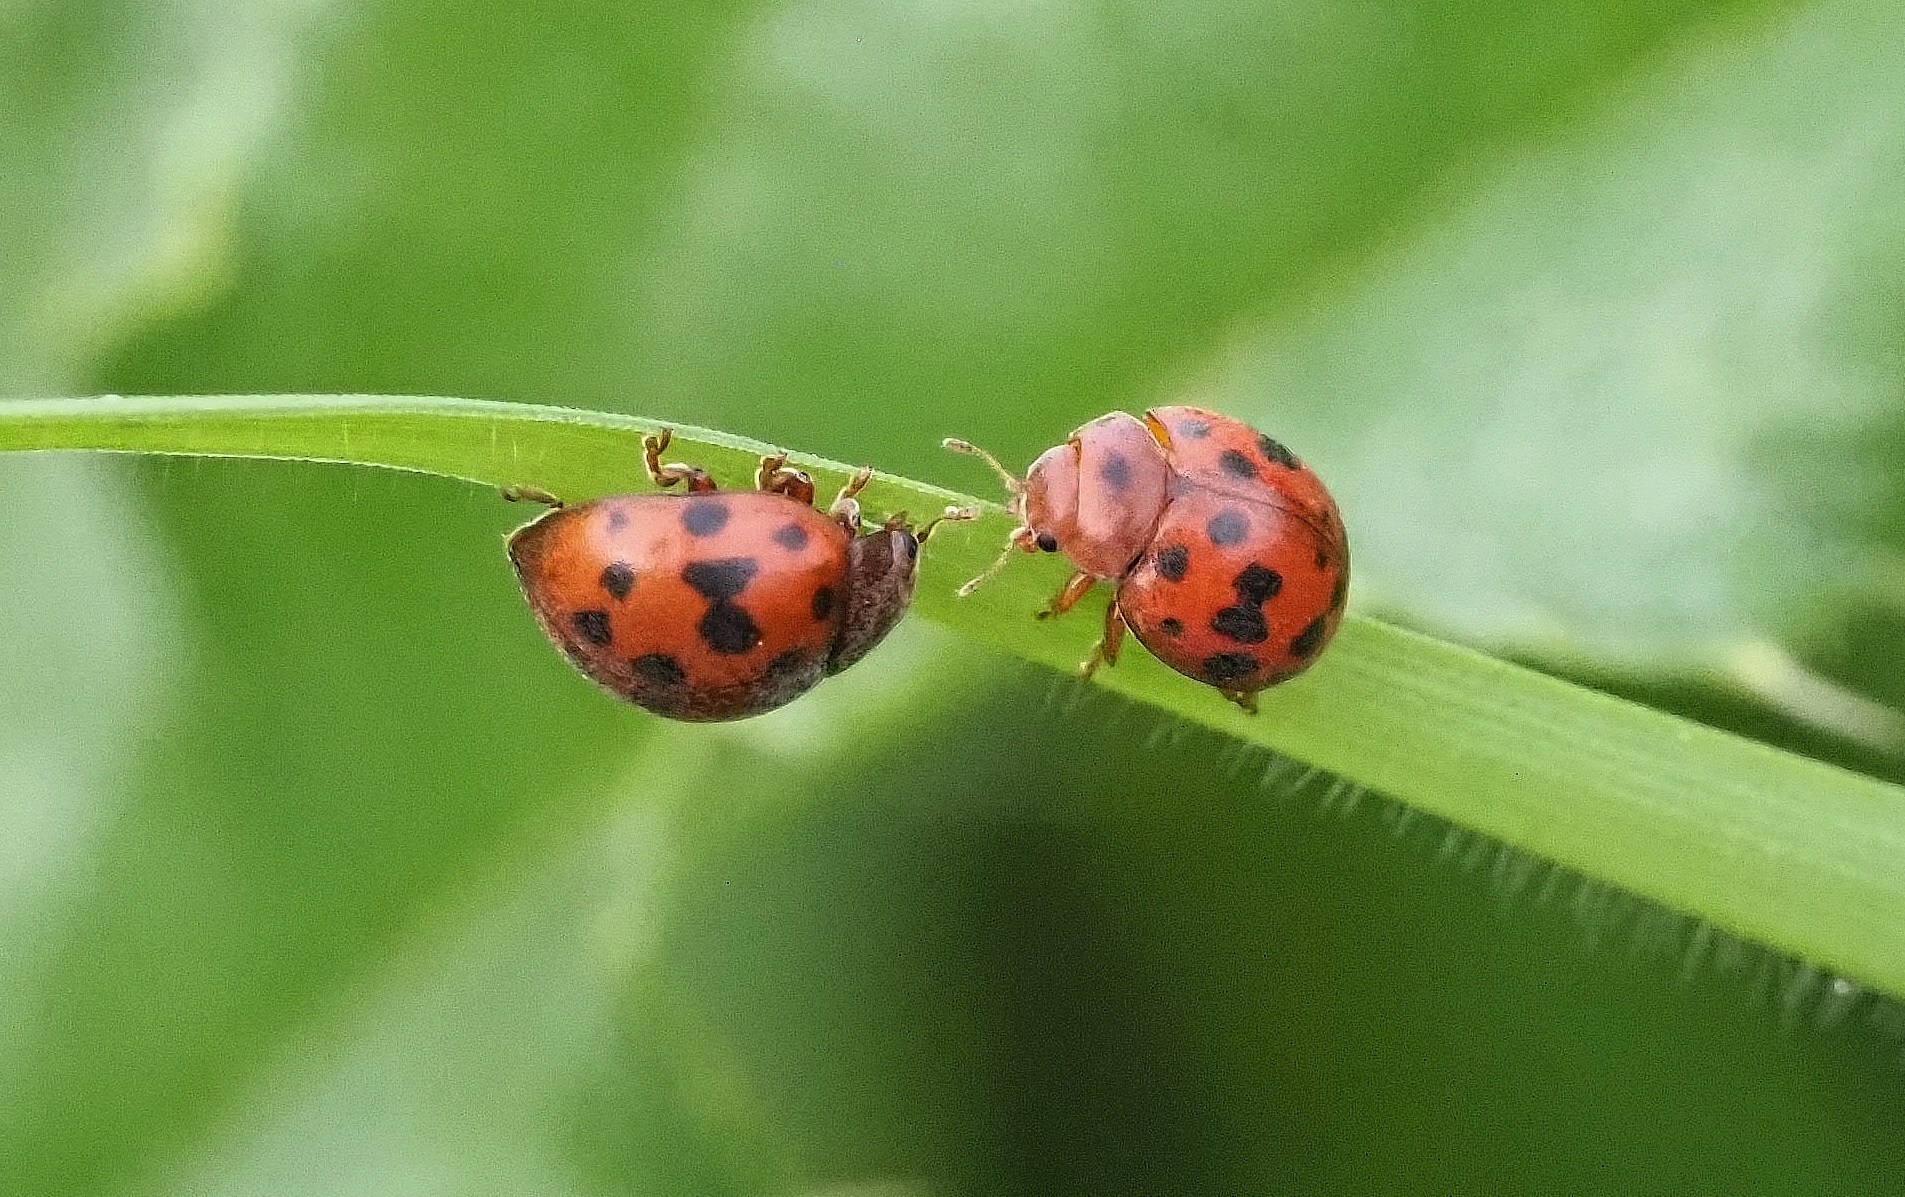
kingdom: Animalia
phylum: Arthropoda
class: Insecta
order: Coleoptera
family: Coccinellidae
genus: Subcoccinella
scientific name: Subcoccinella vigintiquatuorpunctata
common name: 24-spot ladybird
